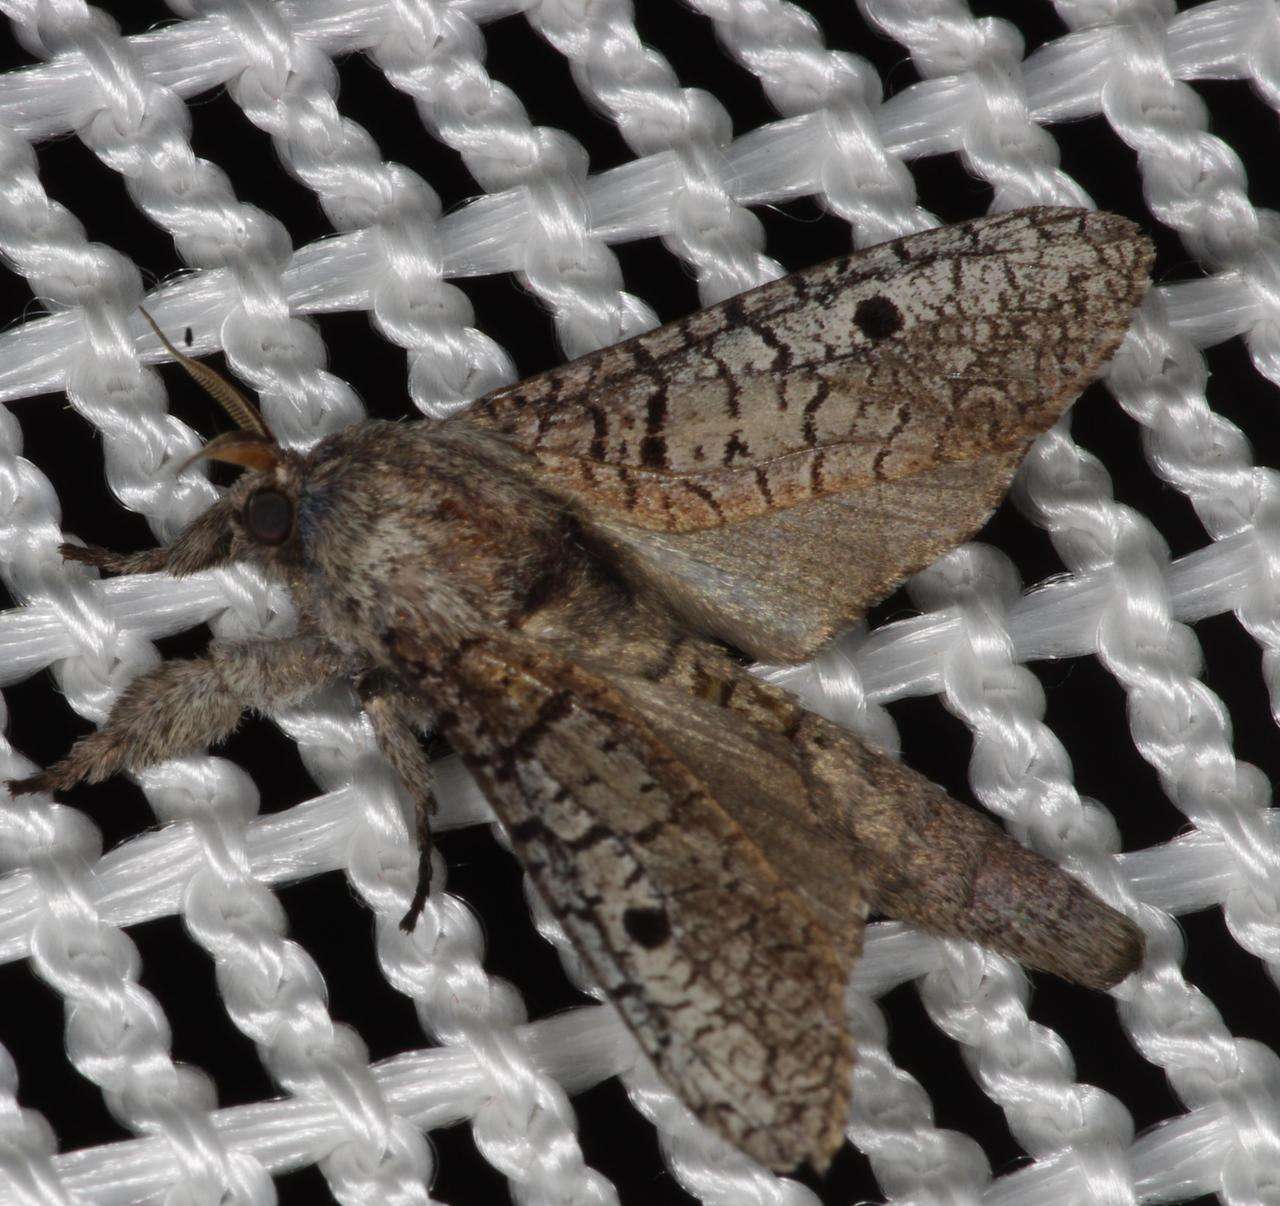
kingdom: Animalia
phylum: Arthropoda
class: Insecta
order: Lepidoptera
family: Cossidae
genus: Sympycnodes
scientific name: Sympycnodes
